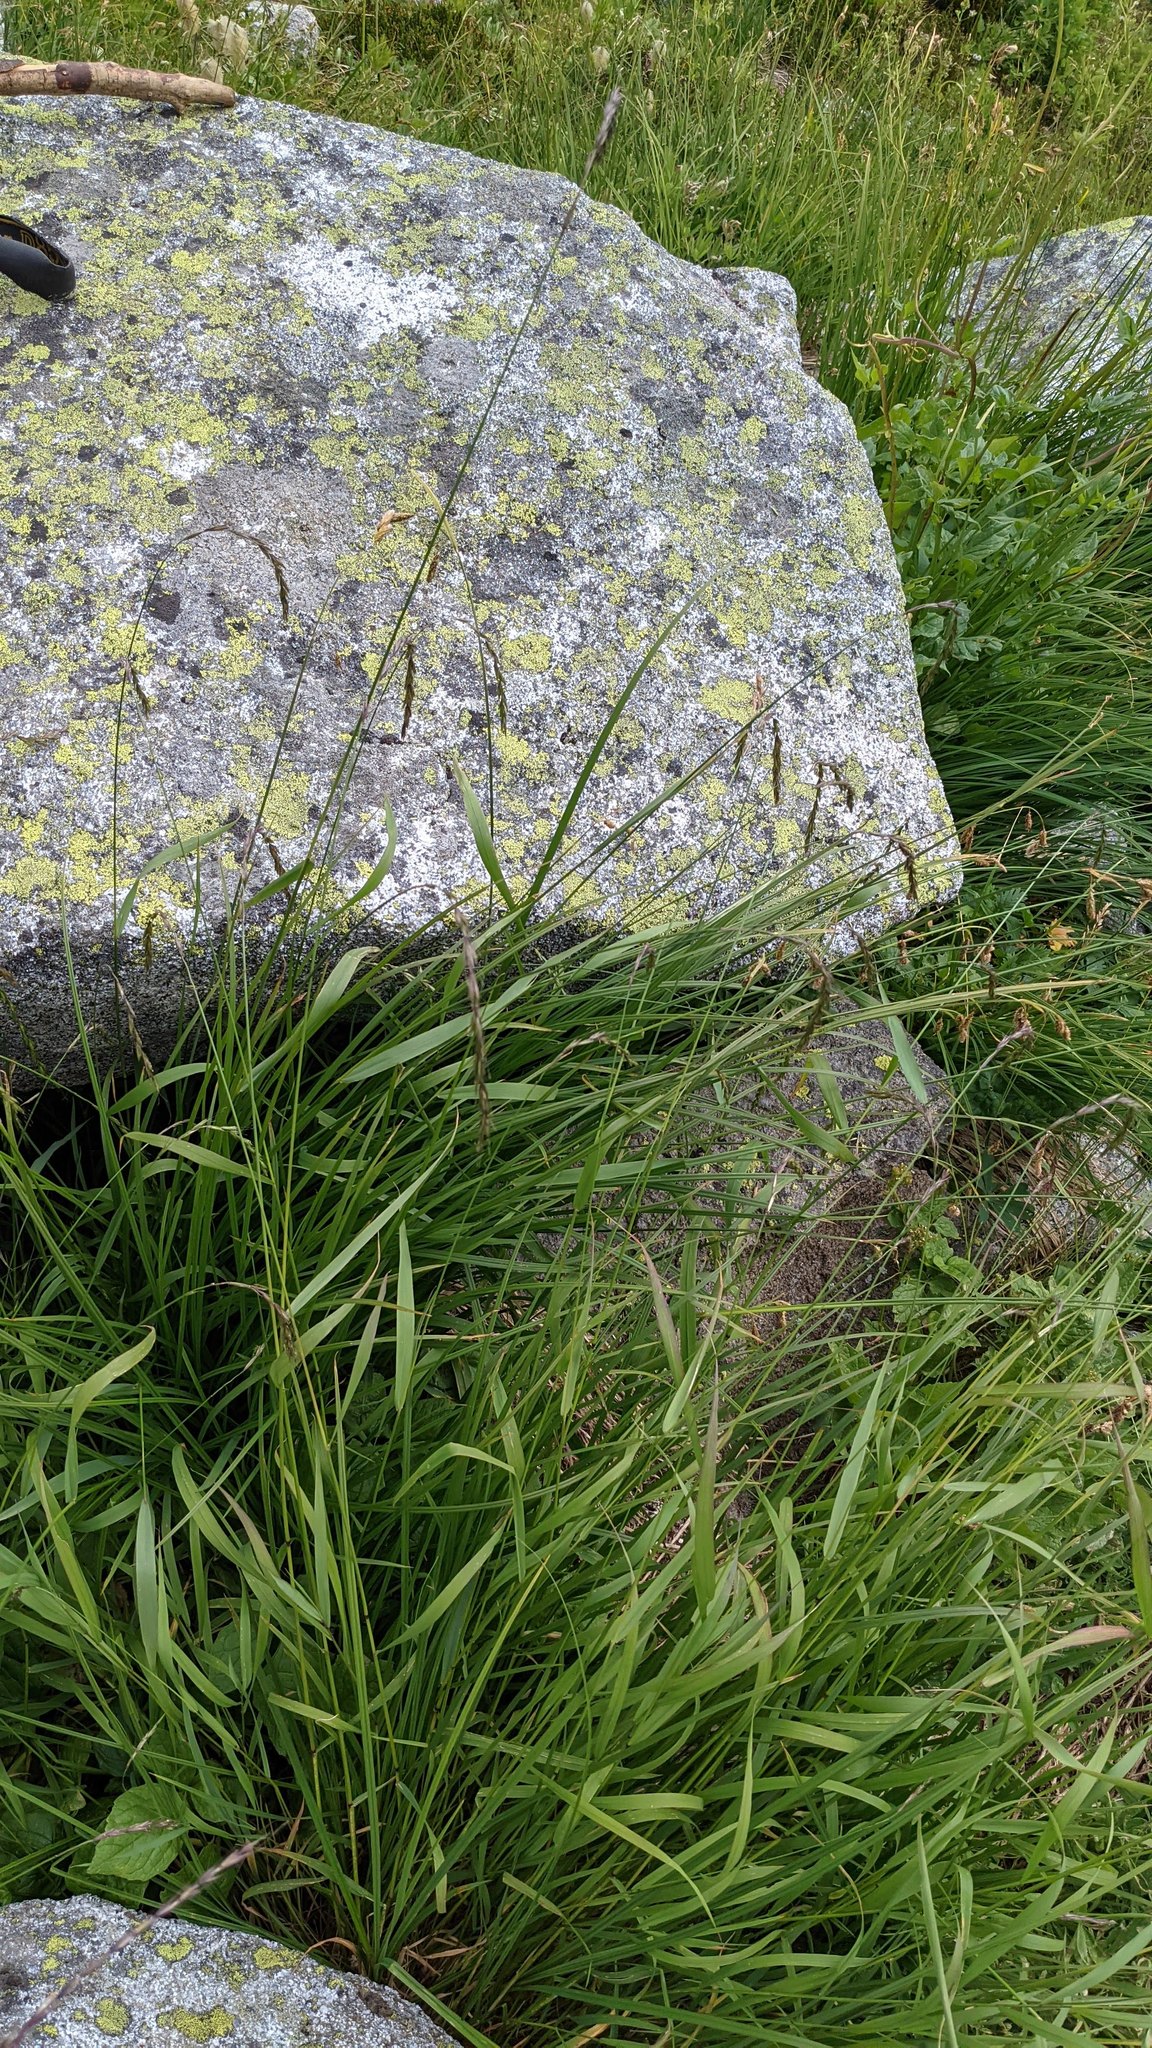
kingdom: Plantae
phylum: Tracheophyta
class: Liliopsida
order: Poales
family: Poaceae
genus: Elymus
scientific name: Elymus glaucus
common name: Blue wild rye
